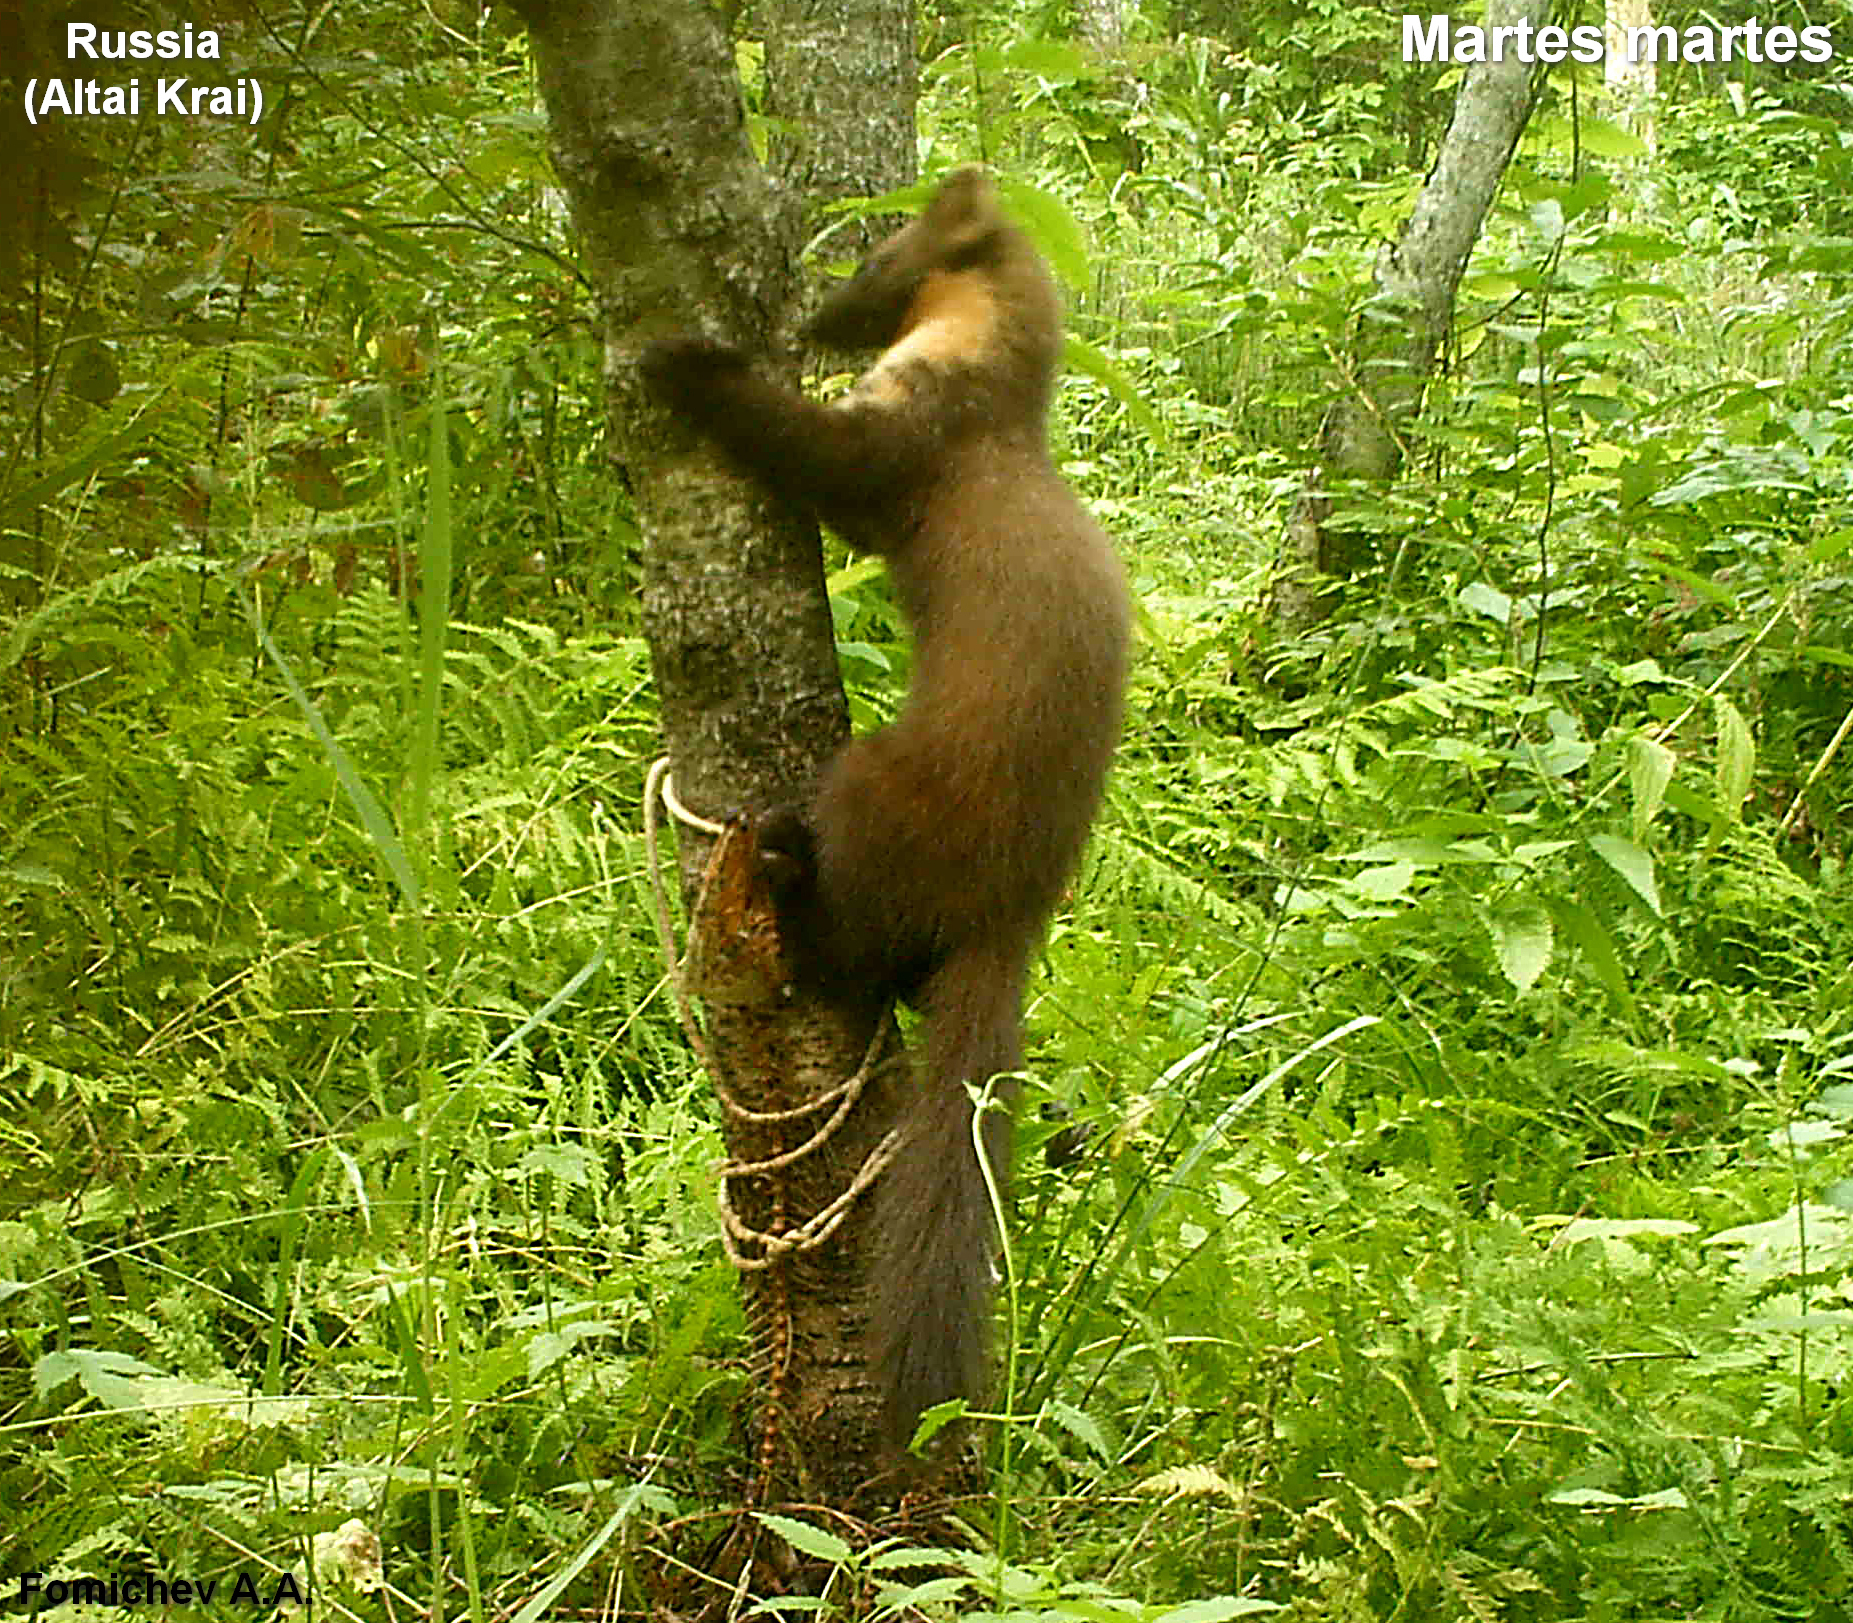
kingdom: Animalia
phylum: Chordata
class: Mammalia
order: Carnivora
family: Mustelidae
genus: Martes
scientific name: Martes martes
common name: European pine marten
